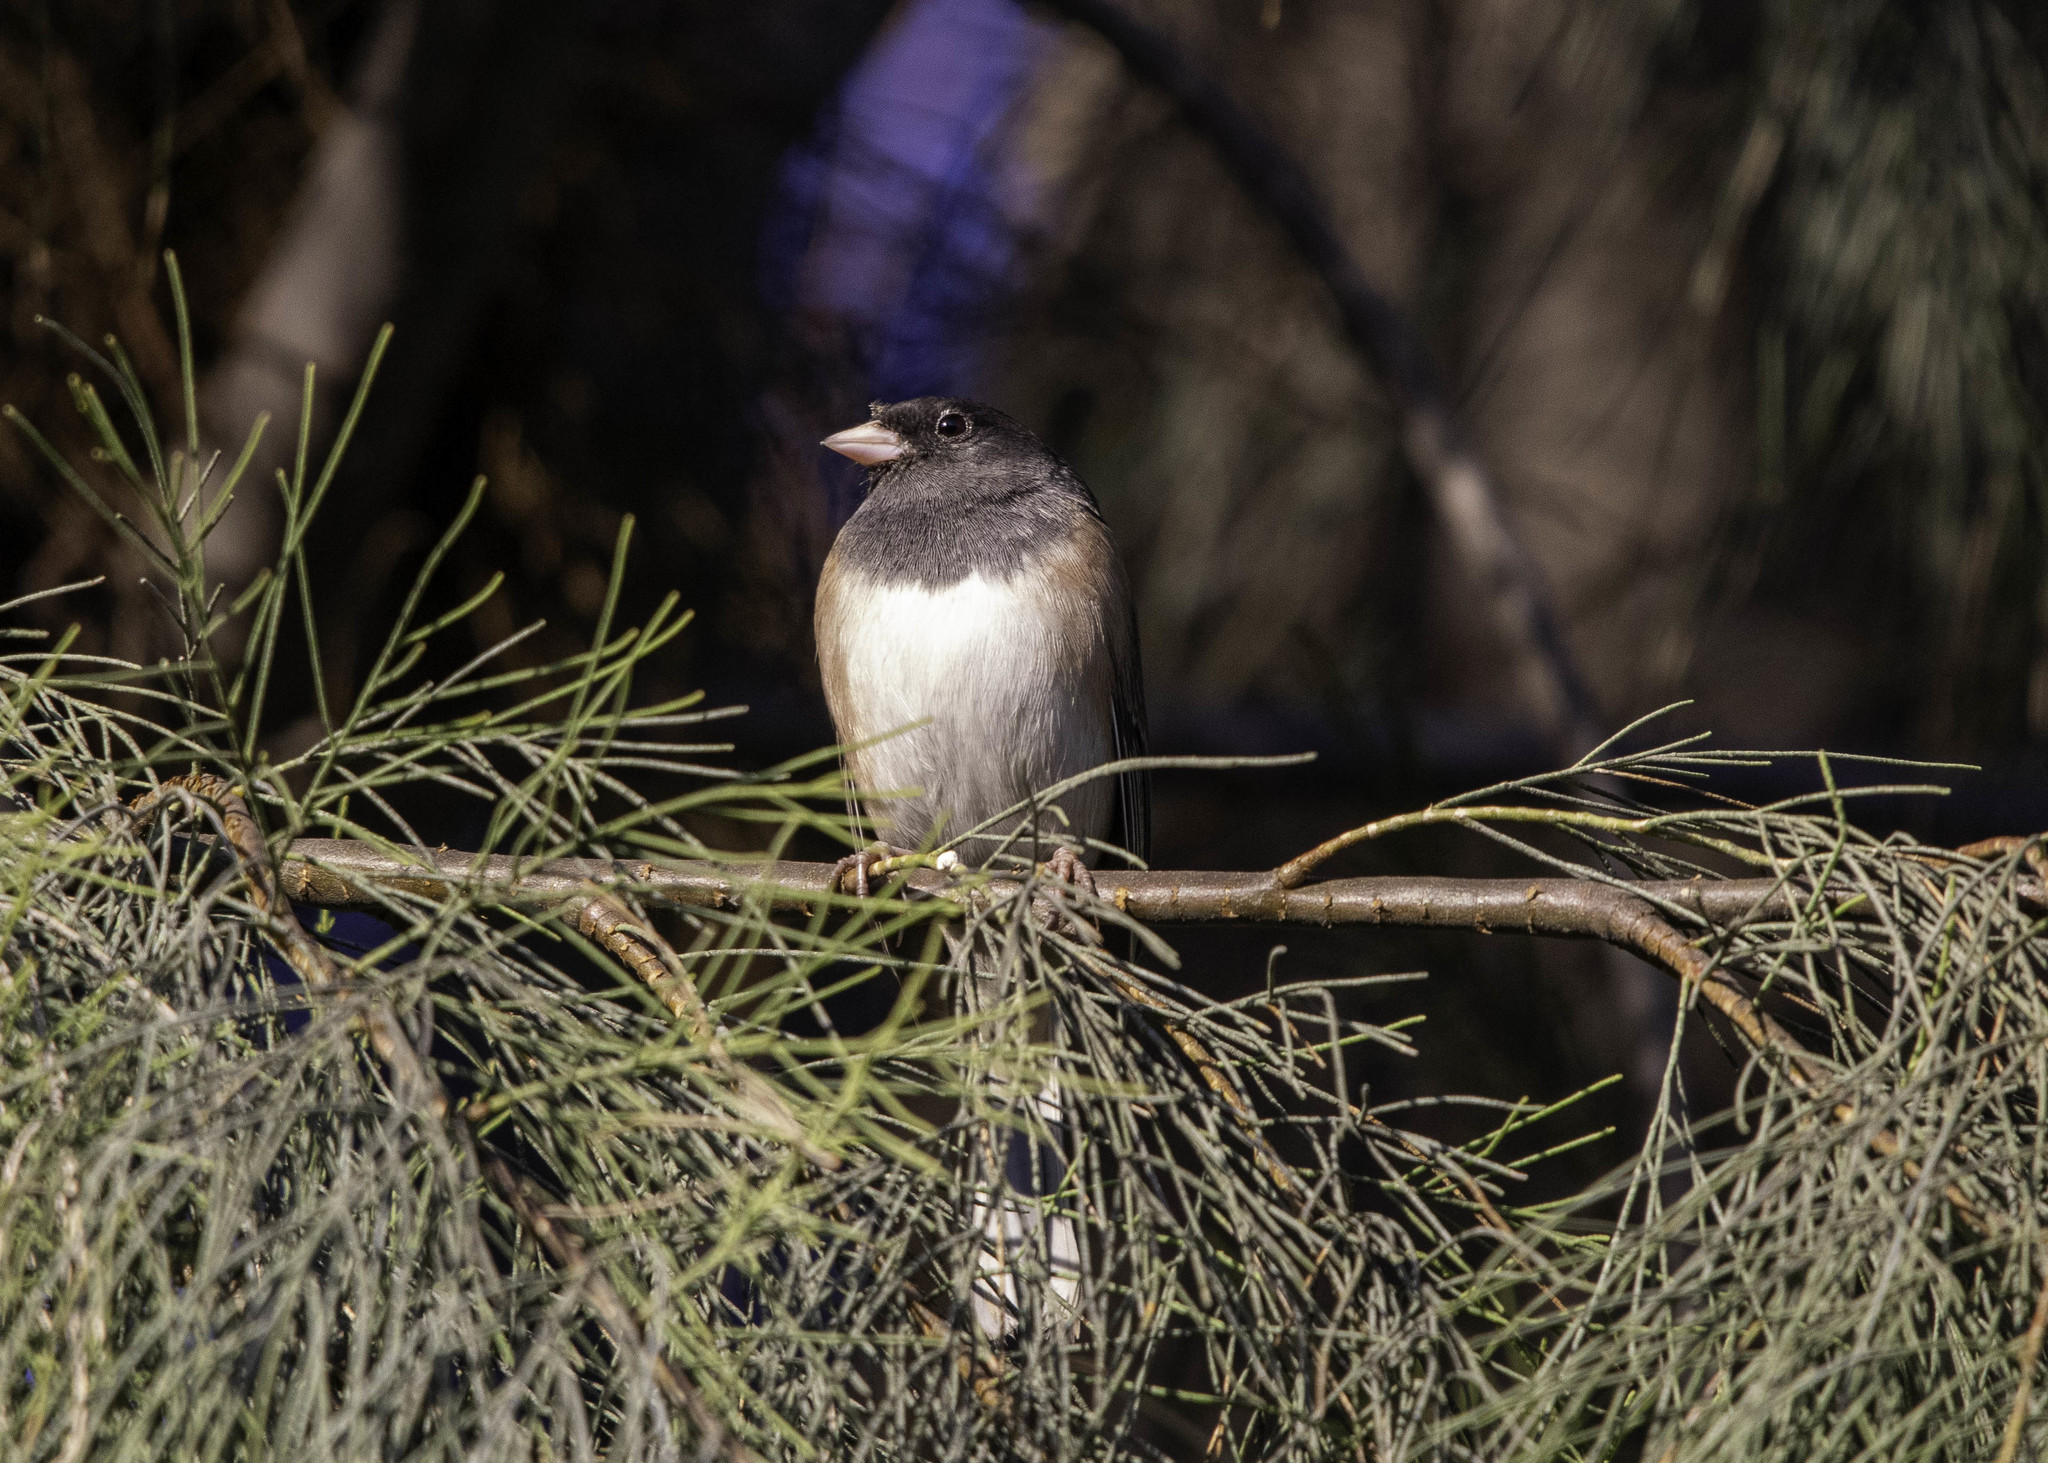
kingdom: Animalia
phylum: Chordata
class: Aves
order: Passeriformes
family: Passerellidae
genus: Junco
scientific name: Junco hyemalis
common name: Dark-eyed junco
